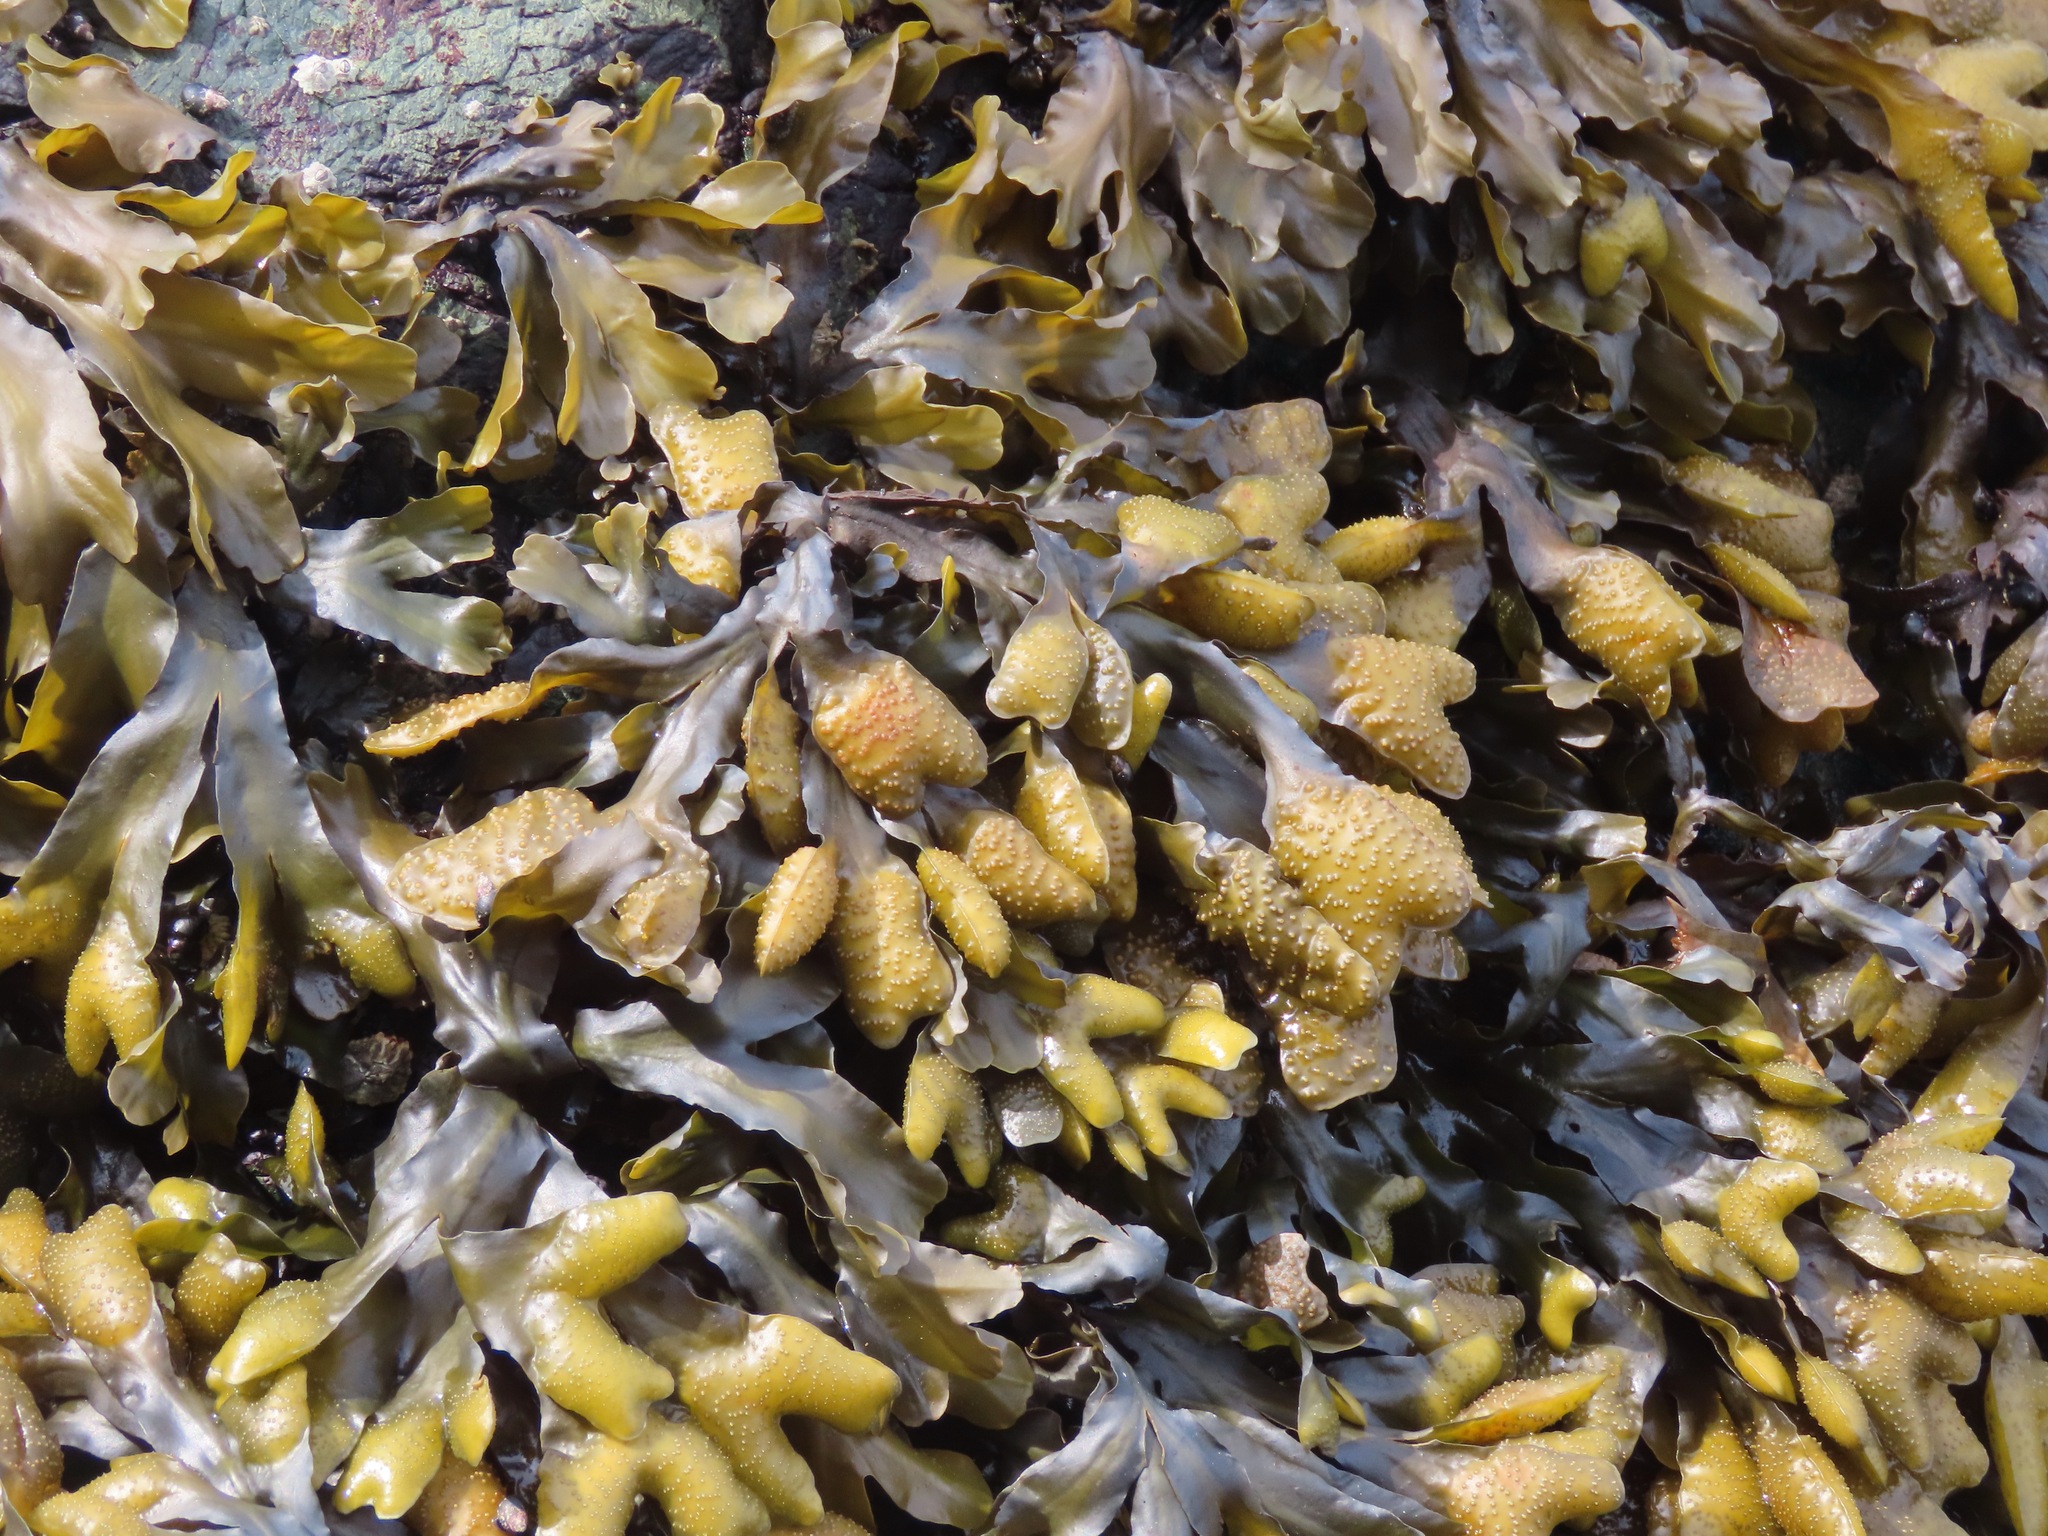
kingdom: Chromista
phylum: Ochrophyta
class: Phaeophyceae
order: Fucales
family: Fucaceae
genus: Fucus
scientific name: Fucus distichus
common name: Rockweed
